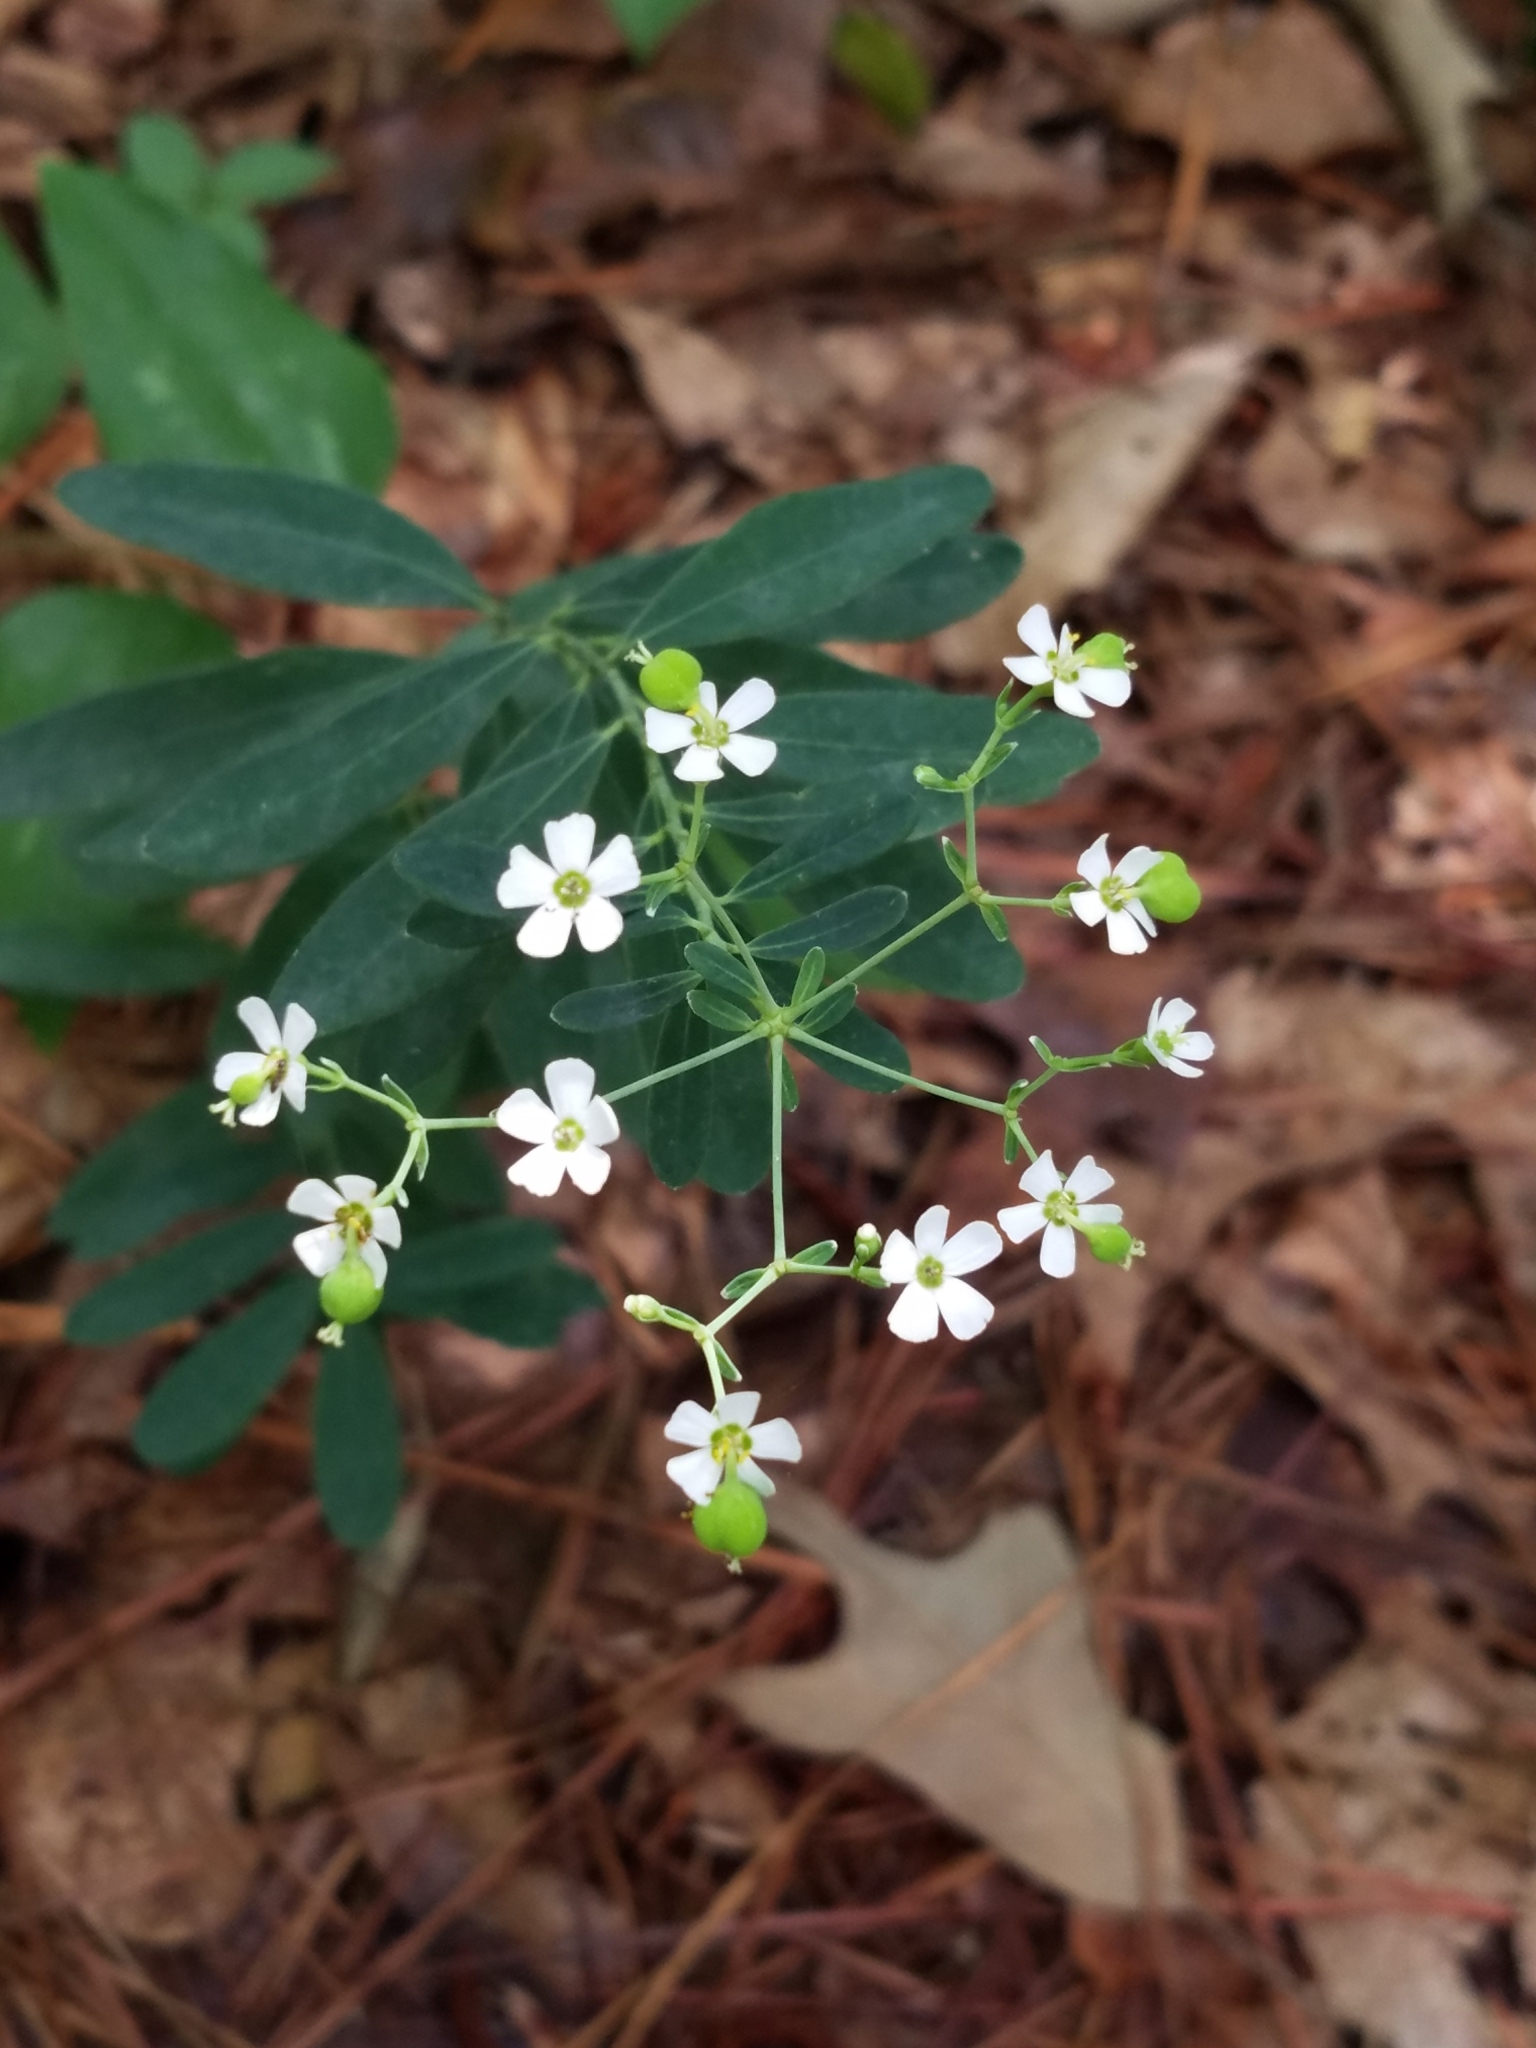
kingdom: Plantae
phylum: Tracheophyta
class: Magnoliopsida
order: Malpighiales
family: Euphorbiaceae
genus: Euphorbia
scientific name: Euphorbia corollata
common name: Flowering spurge
